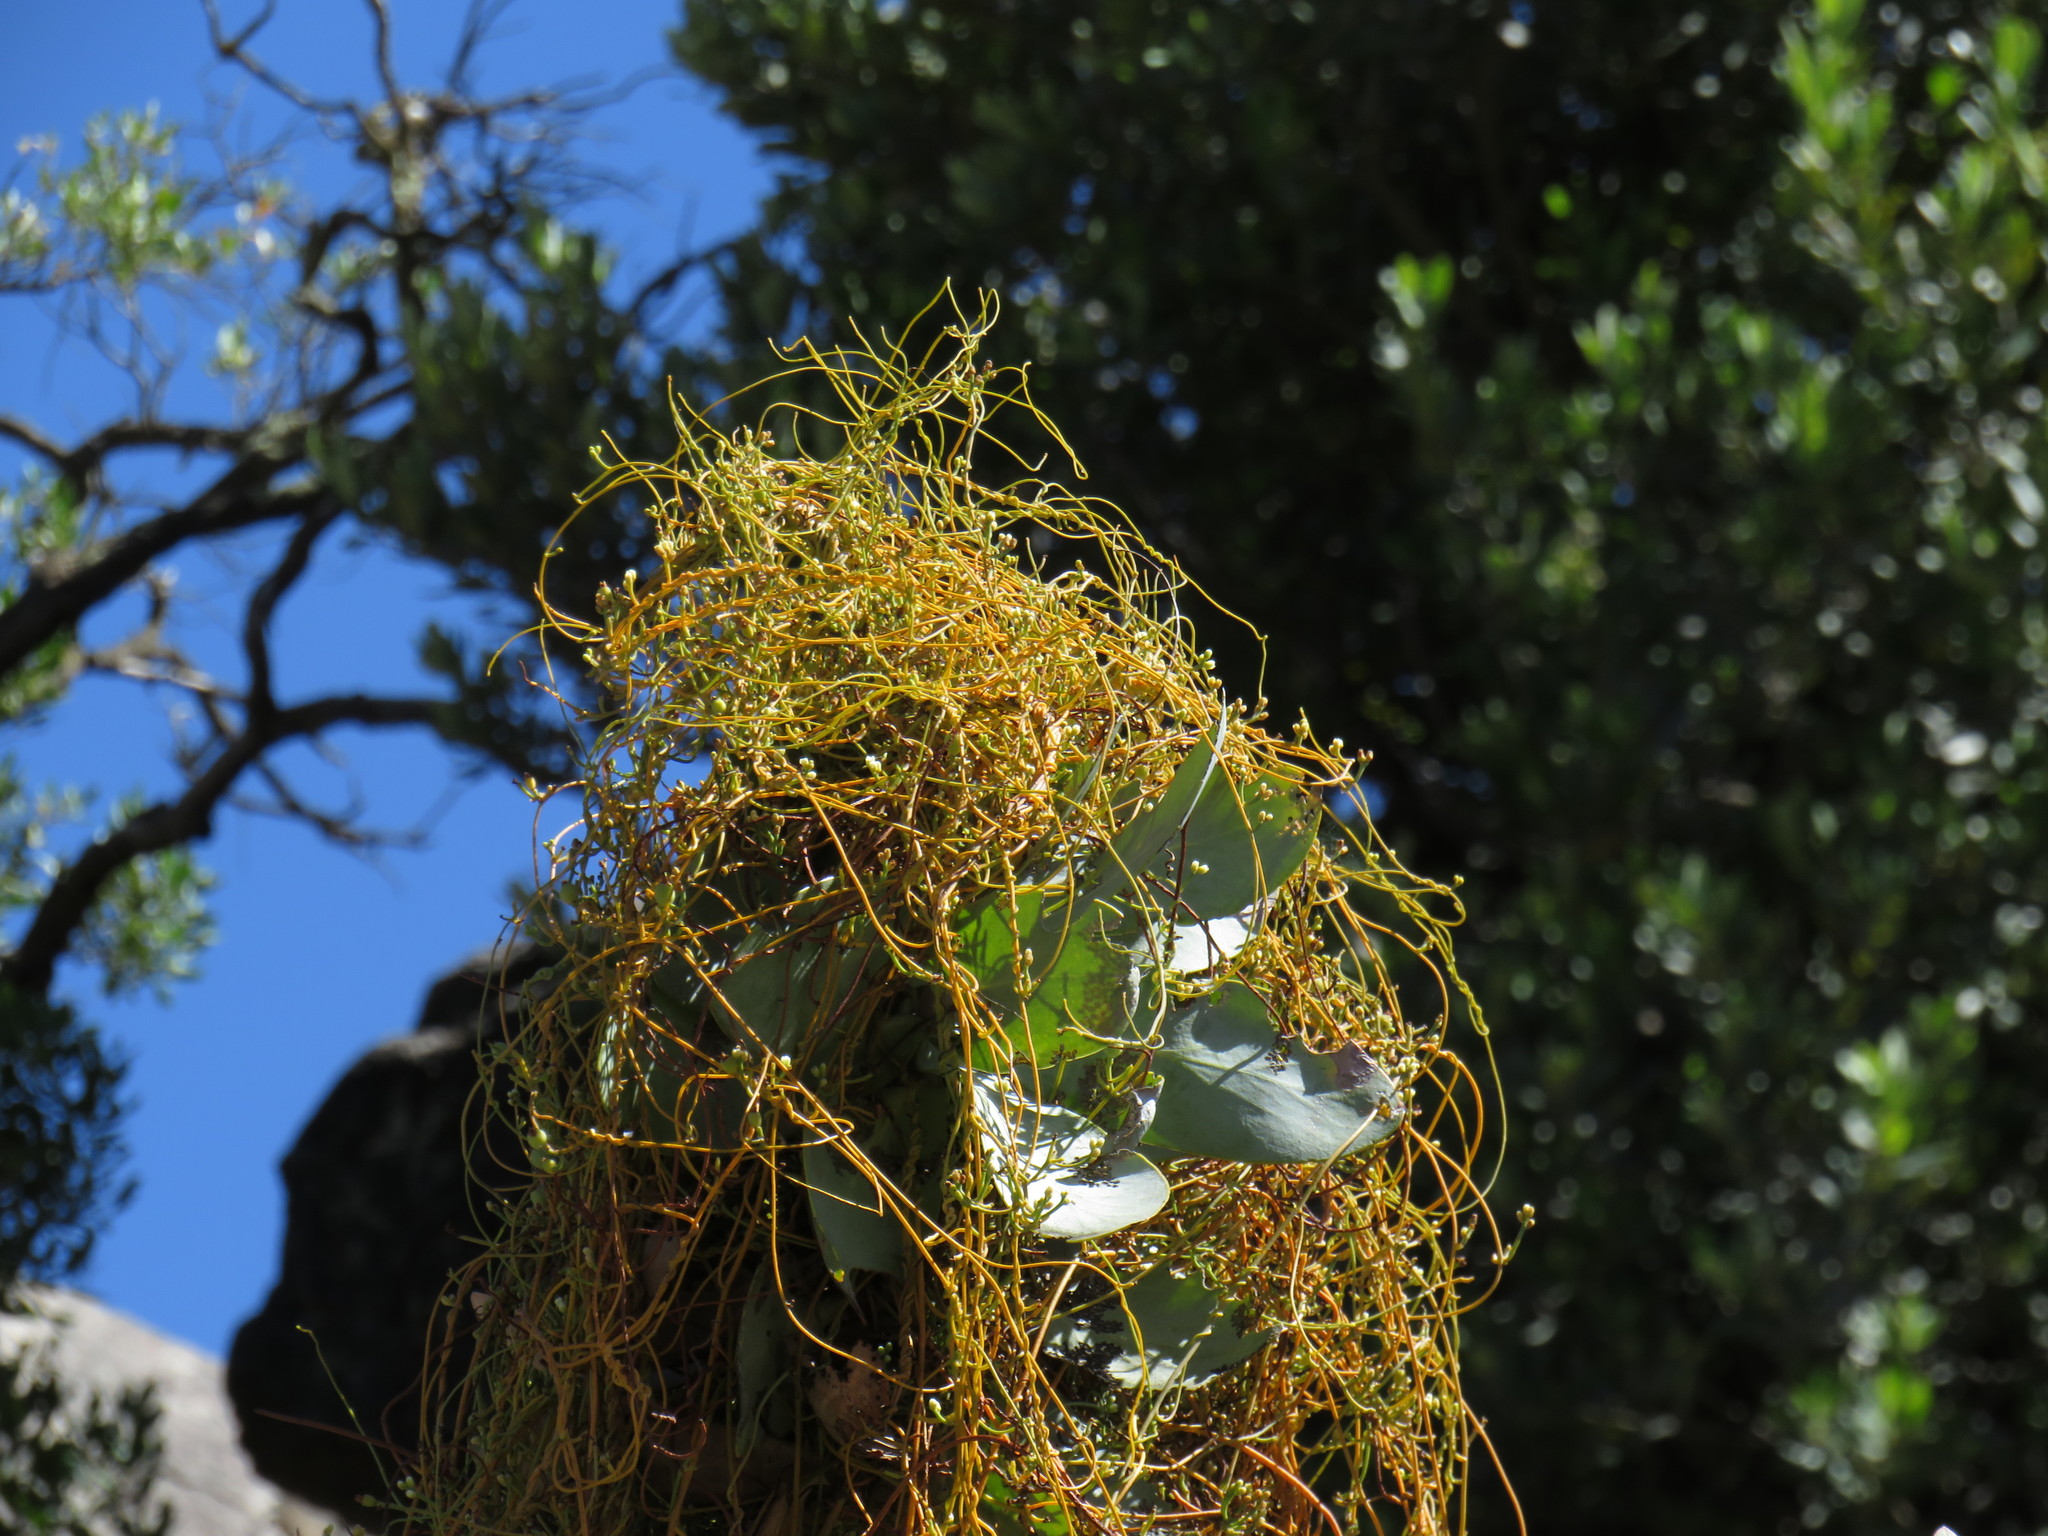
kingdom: Plantae
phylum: Tracheophyta
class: Magnoliopsida
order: Proteales
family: Proteaceae
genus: Protea
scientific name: Protea nitida
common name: Tree protea
